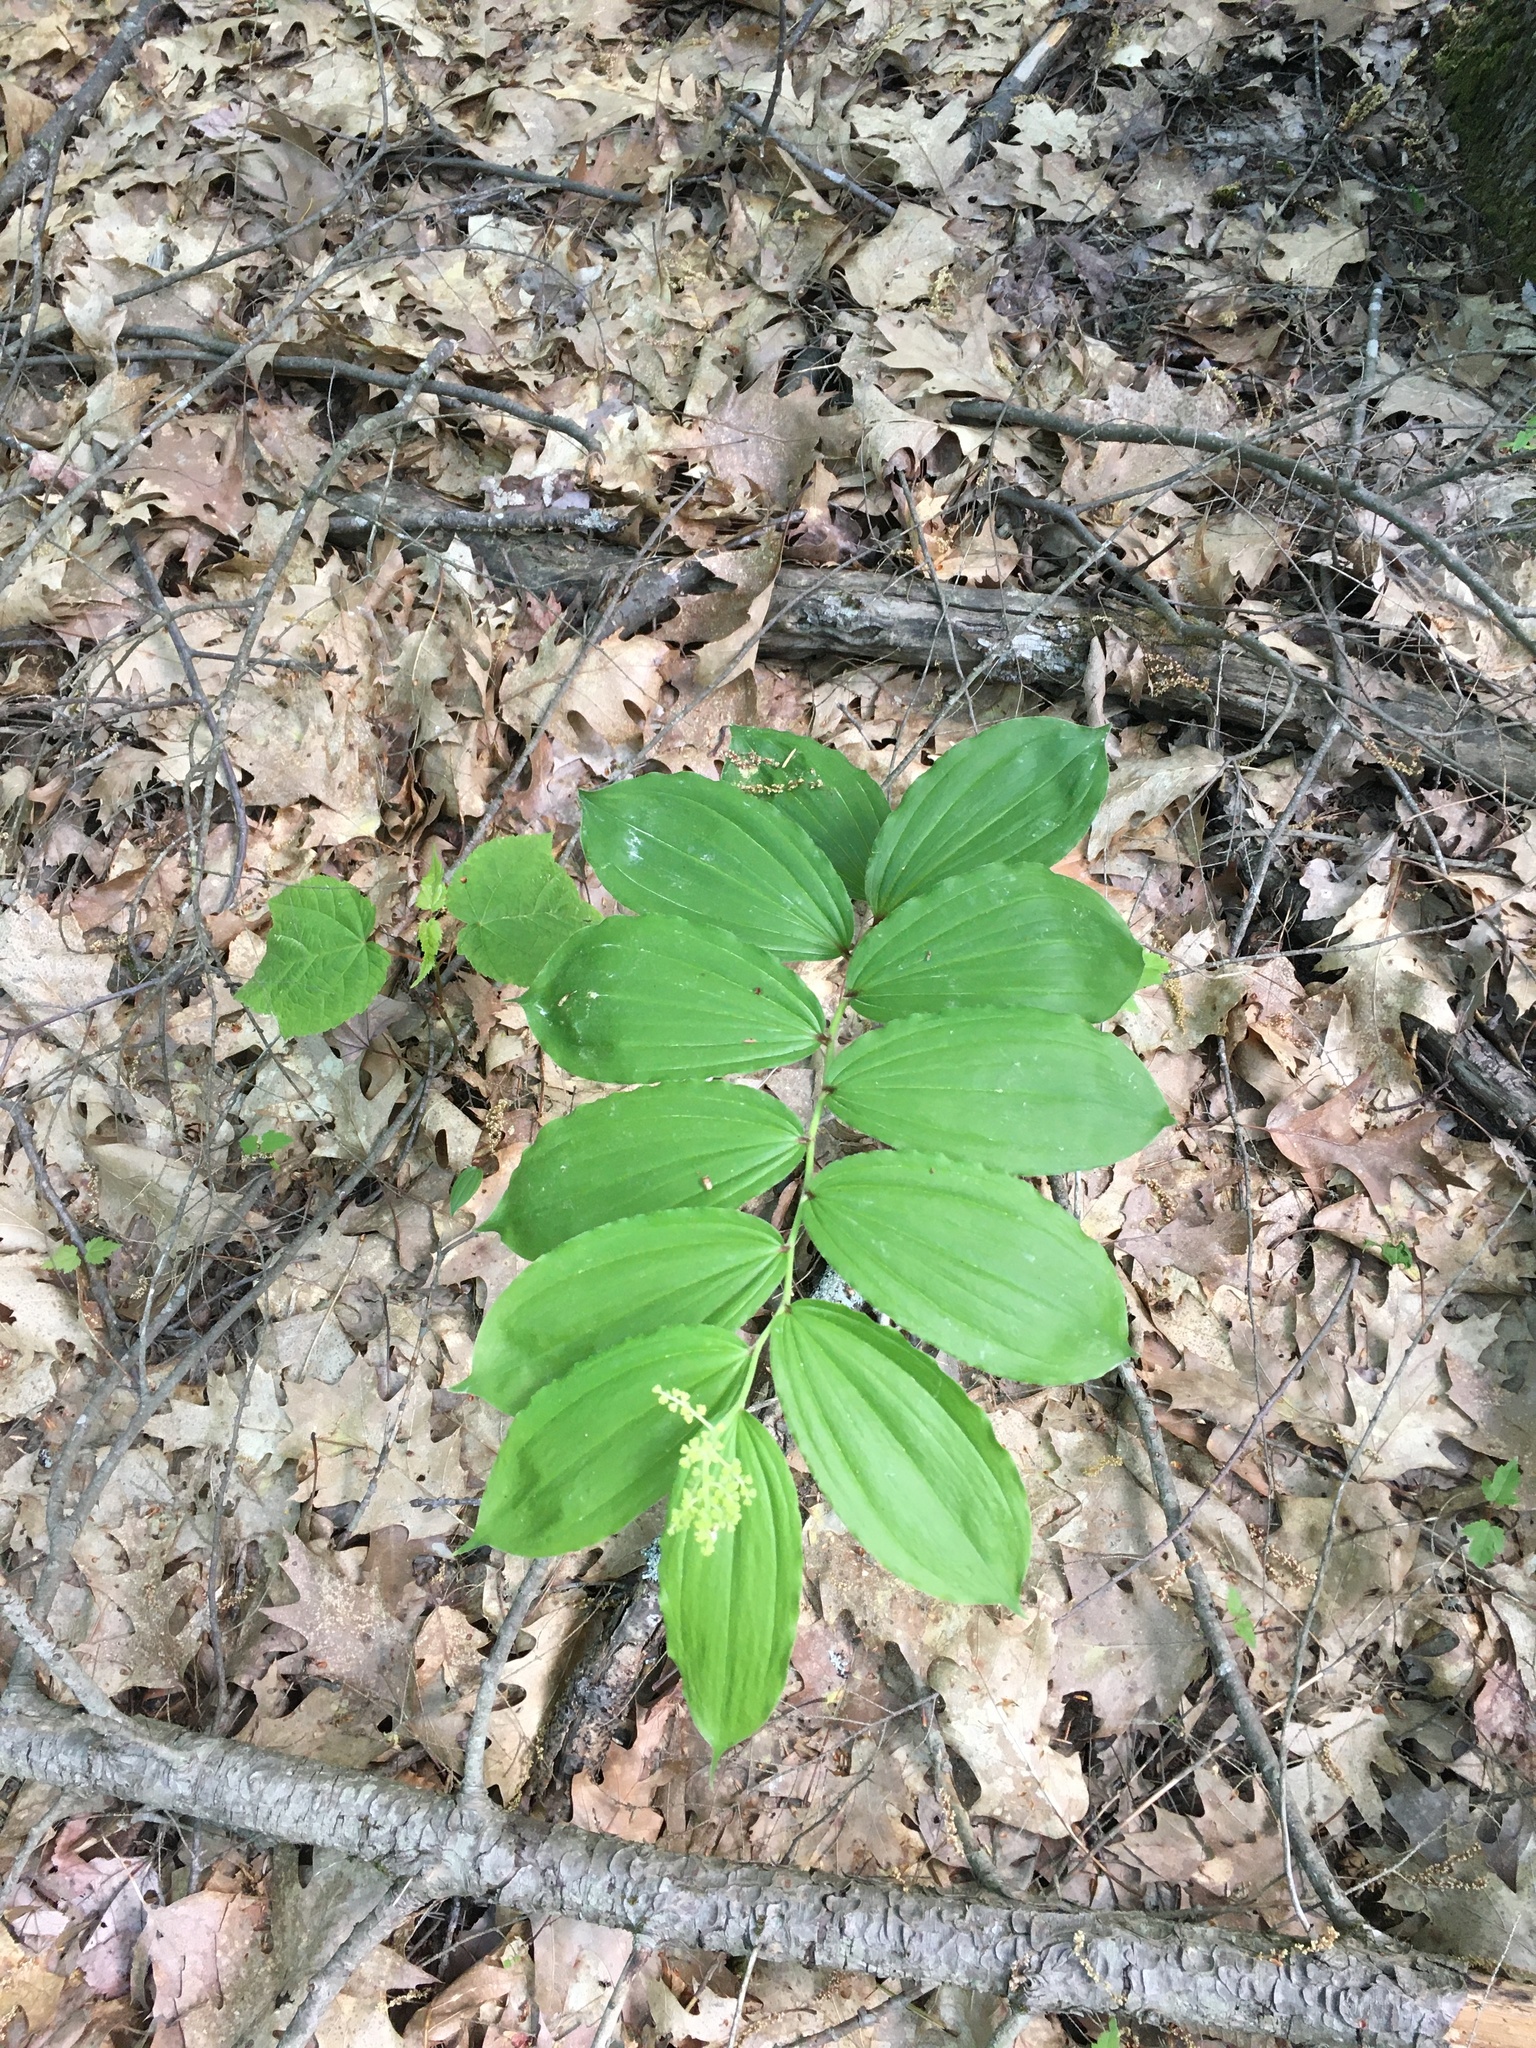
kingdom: Plantae
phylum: Tracheophyta
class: Liliopsida
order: Asparagales
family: Asparagaceae
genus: Maianthemum
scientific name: Maianthemum racemosum
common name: False spikenard
